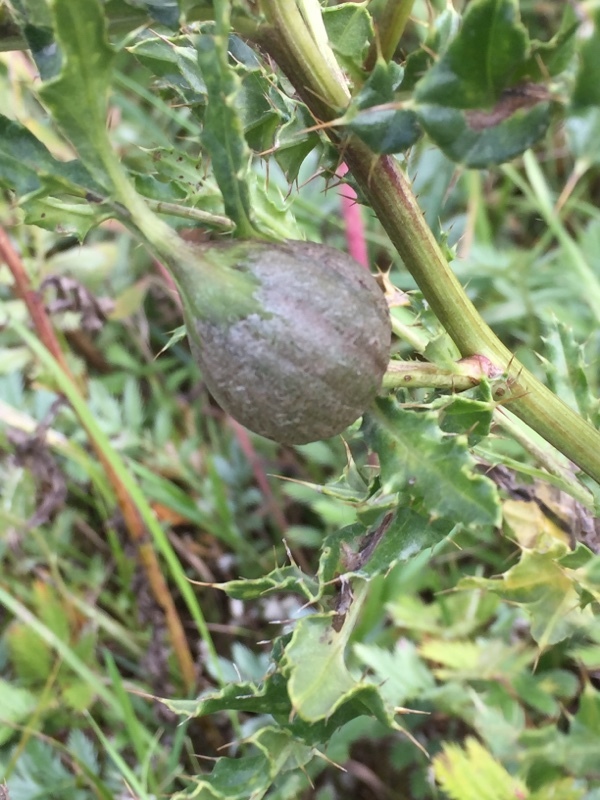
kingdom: Animalia
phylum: Arthropoda
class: Insecta
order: Diptera
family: Tephritidae
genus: Urophora
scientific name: Urophora cardui
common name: Fruit fly
